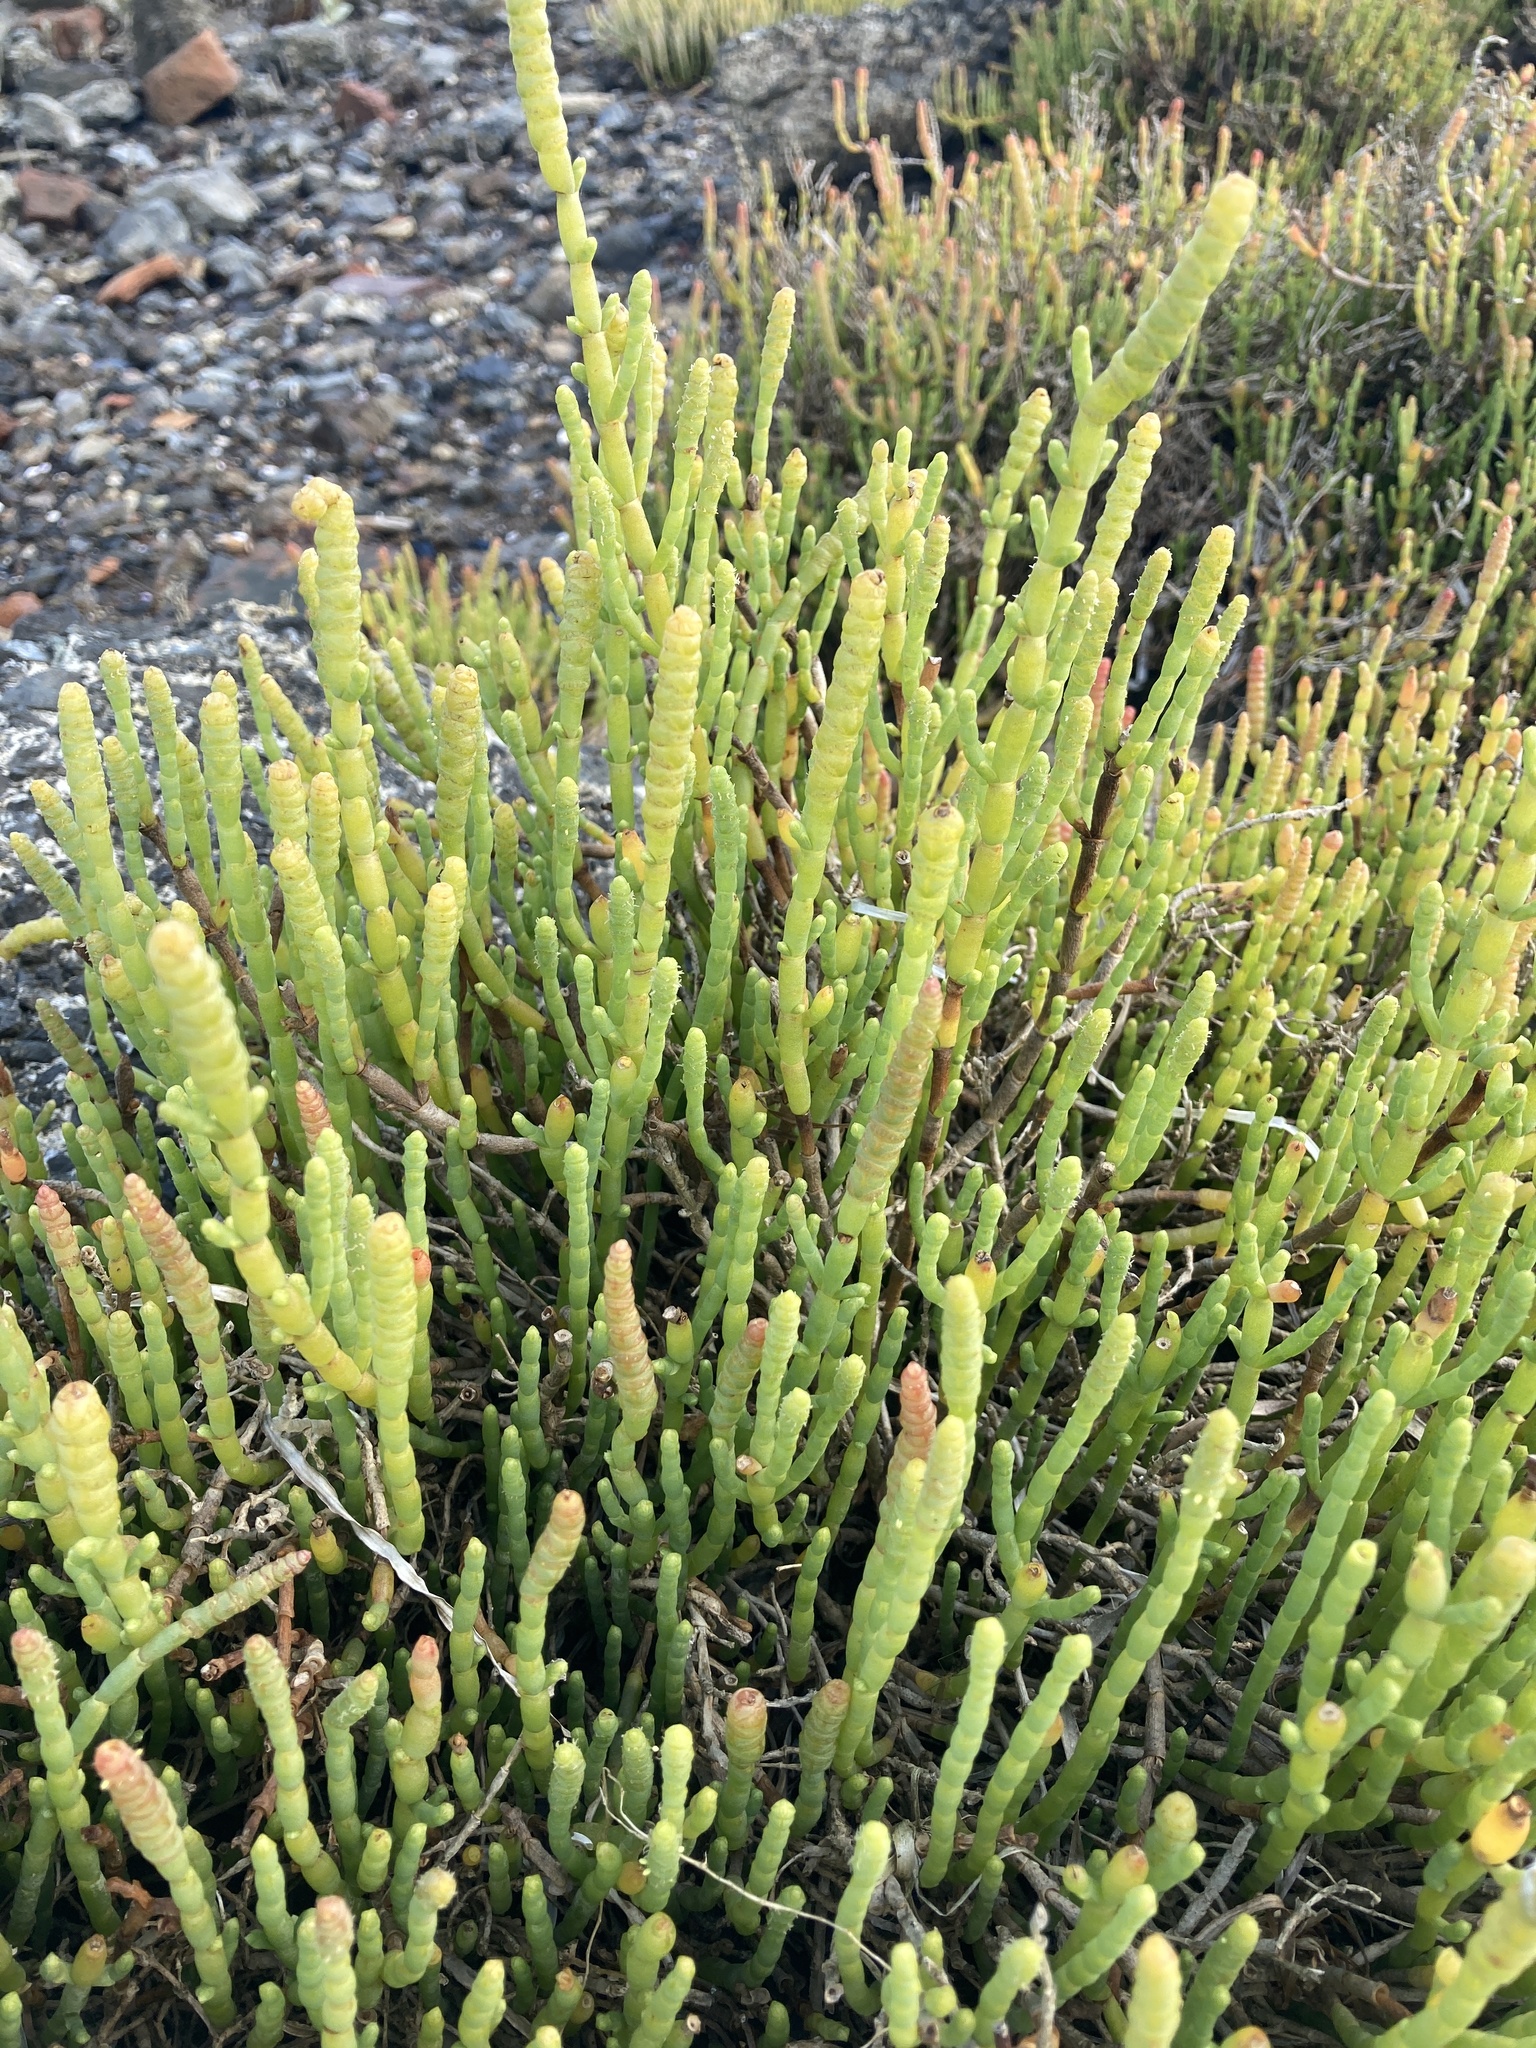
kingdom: Plantae
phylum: Tracheophyta
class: Magnoliopsida
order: Caryophyllales
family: Amaranthaceae
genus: Salicornia
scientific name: Salicornia quinqueflora
